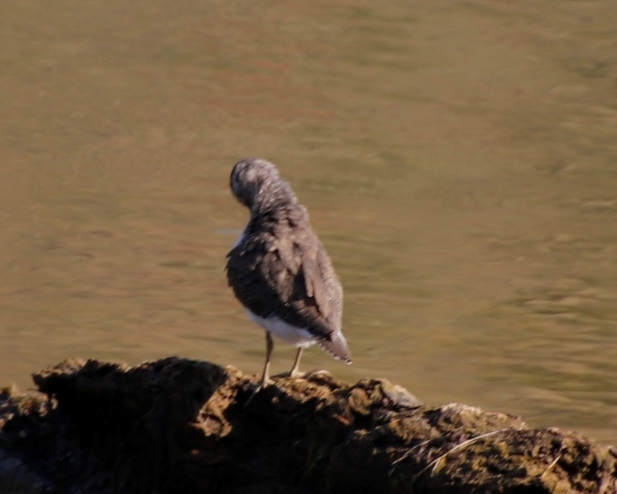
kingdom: Animalia
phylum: Chordata
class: Aves
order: Charadriiformes
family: Scolopacidae
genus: Actitis
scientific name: Actitis hypoleucos
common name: Common sandpiper
